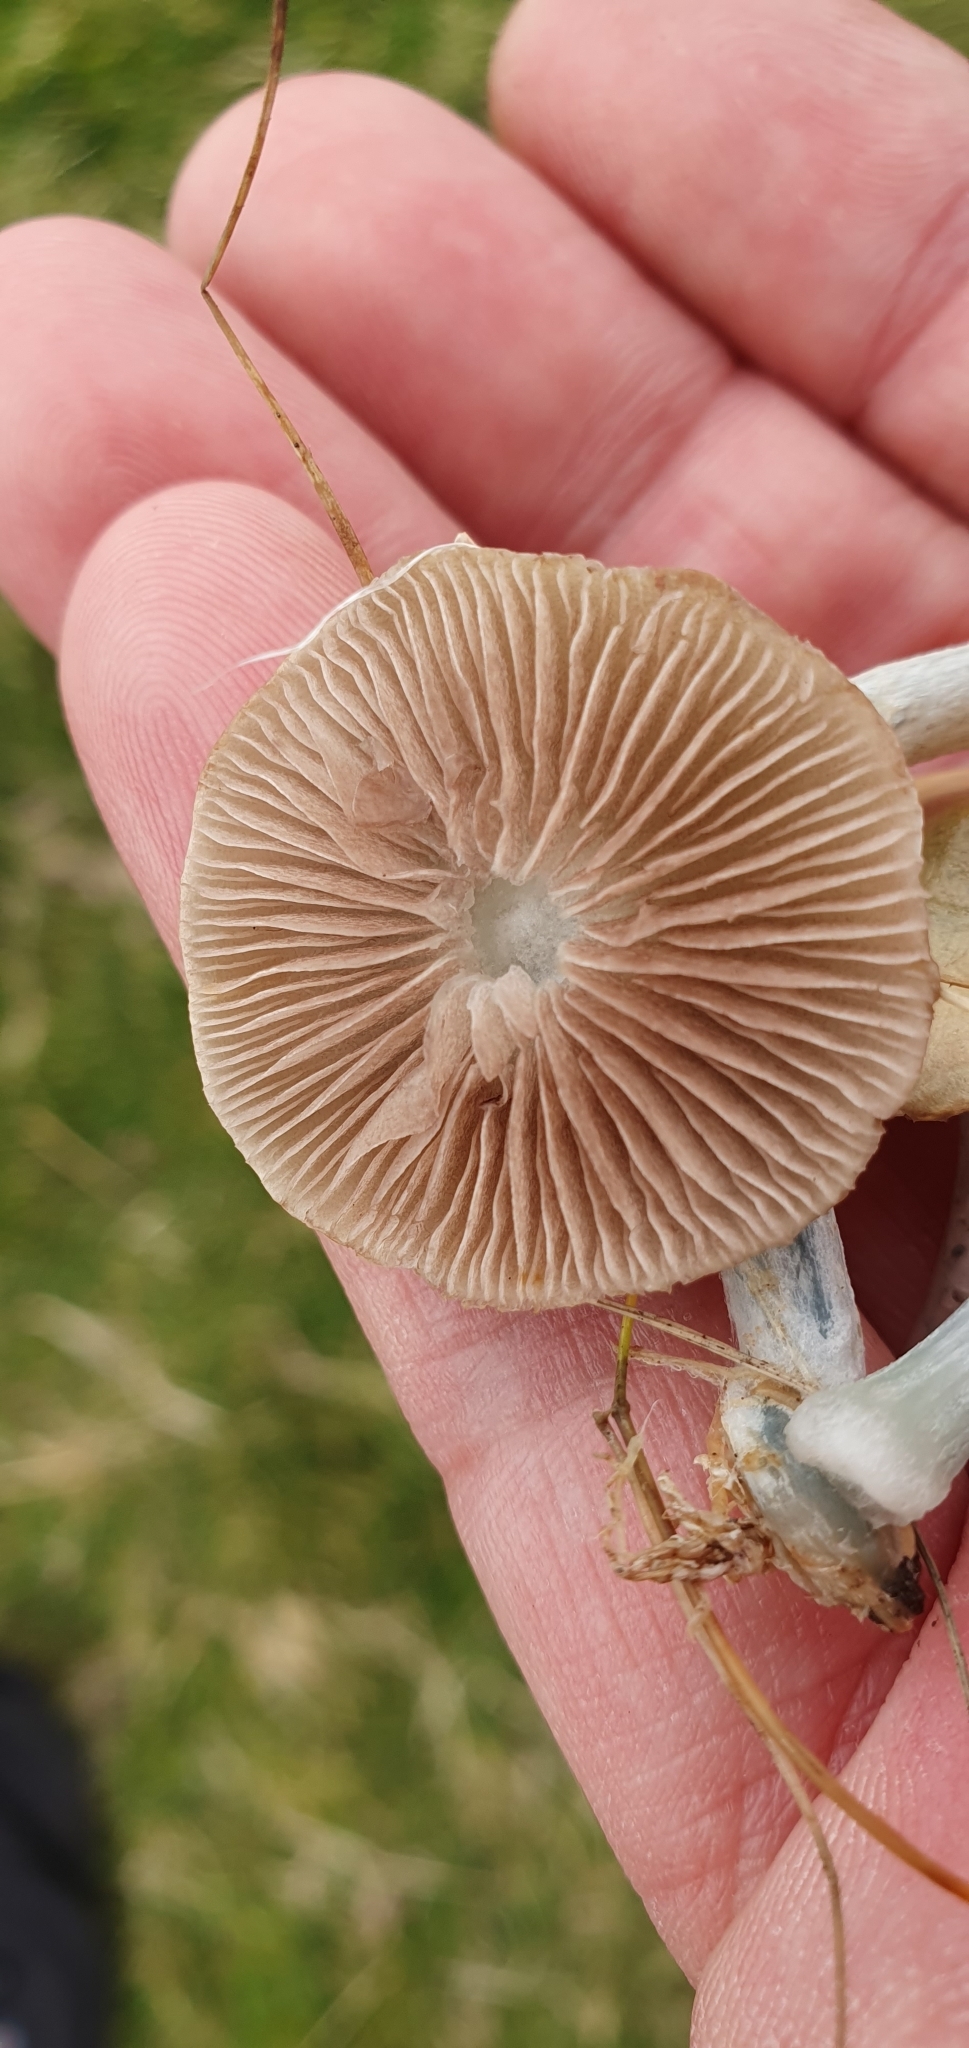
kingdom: Fungi
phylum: Basidiomycota
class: Agaricomycetes
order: Agaricales
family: Strophariaceae
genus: Stropharia
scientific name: Stropharia pseudocyanea
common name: Peppery roundhead
